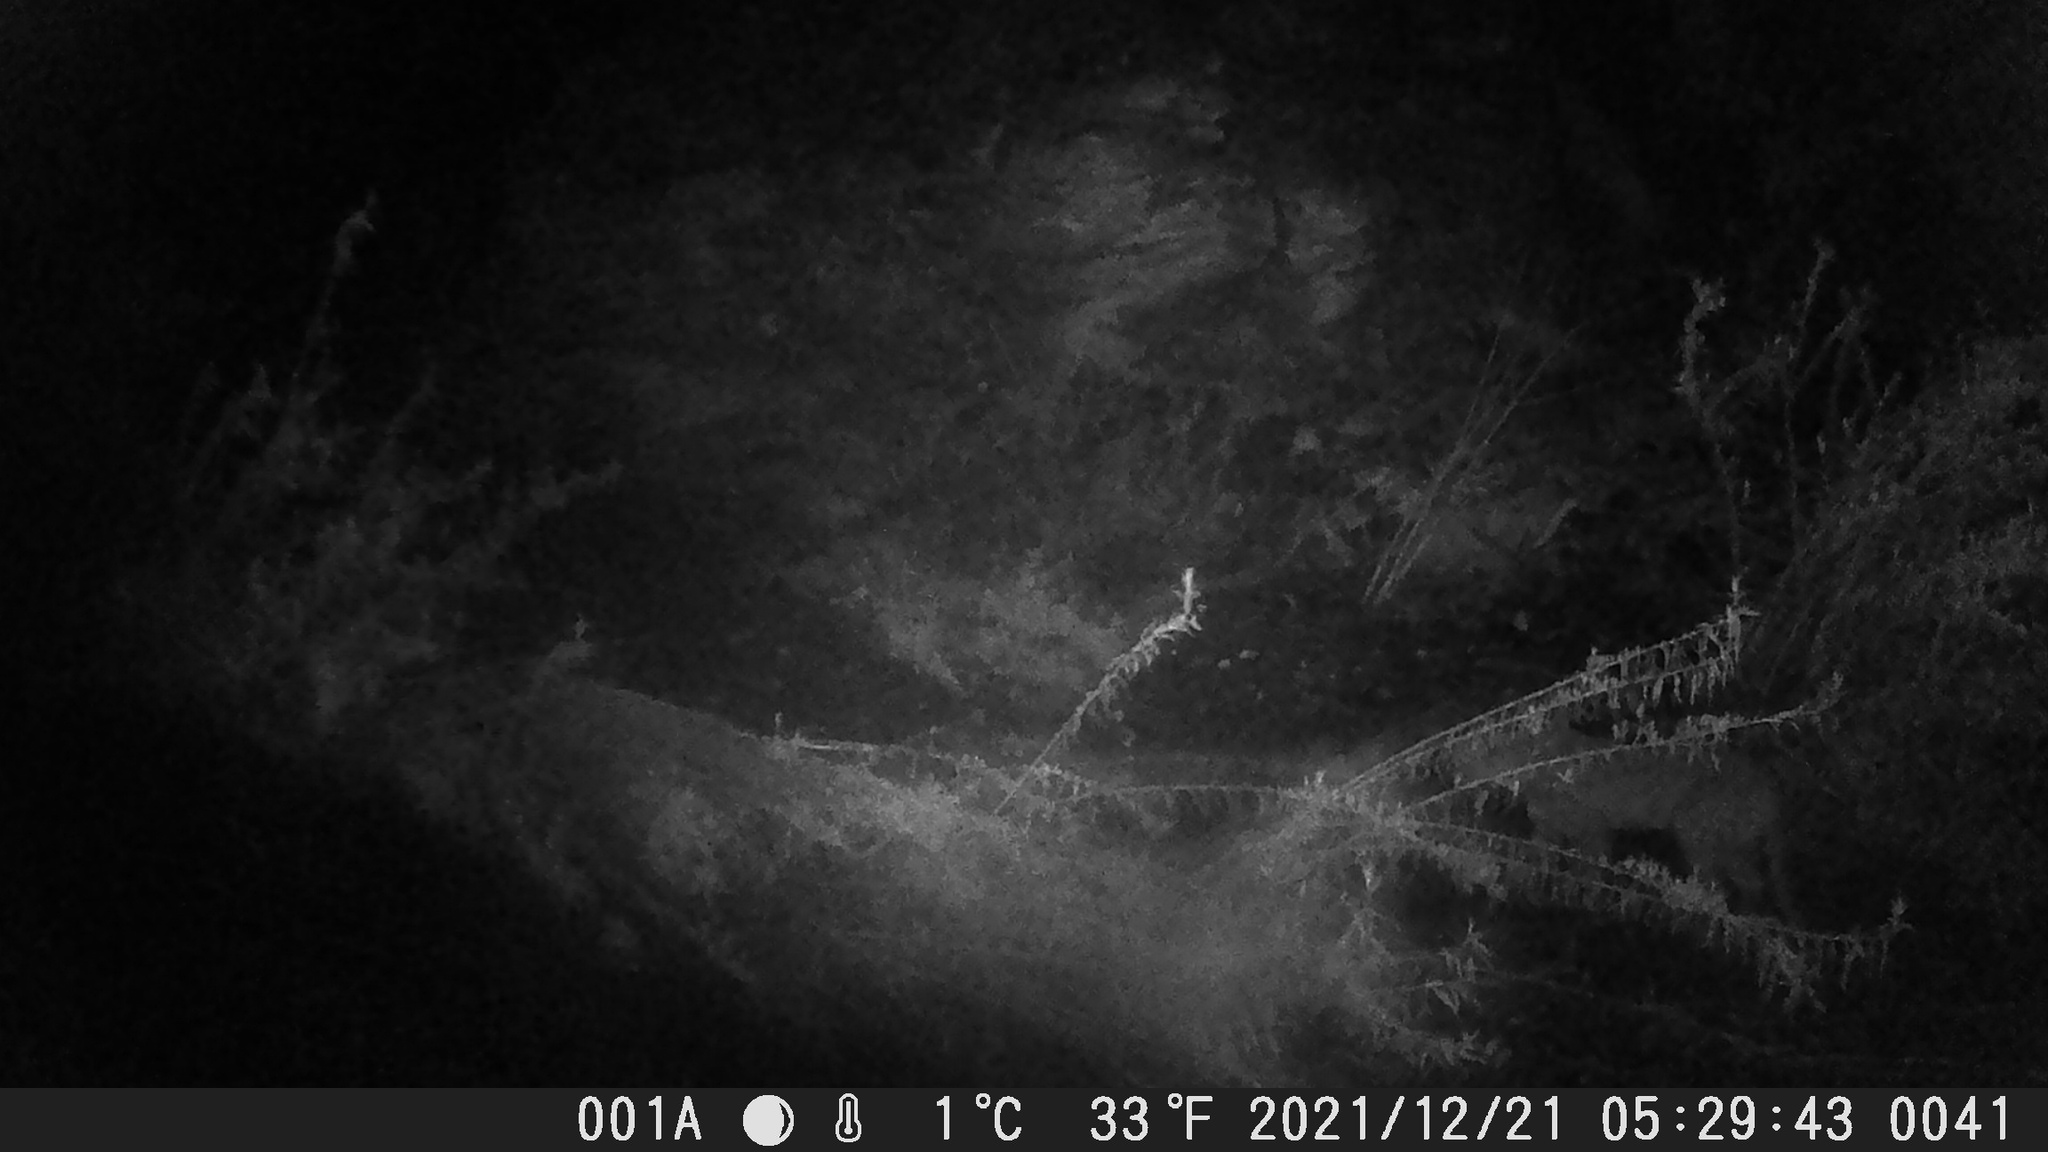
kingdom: Animalia
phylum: Chordata
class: Mammalia
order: Carnivora
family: Felidae
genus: Puma
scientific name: Puma concolor
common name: Puma
